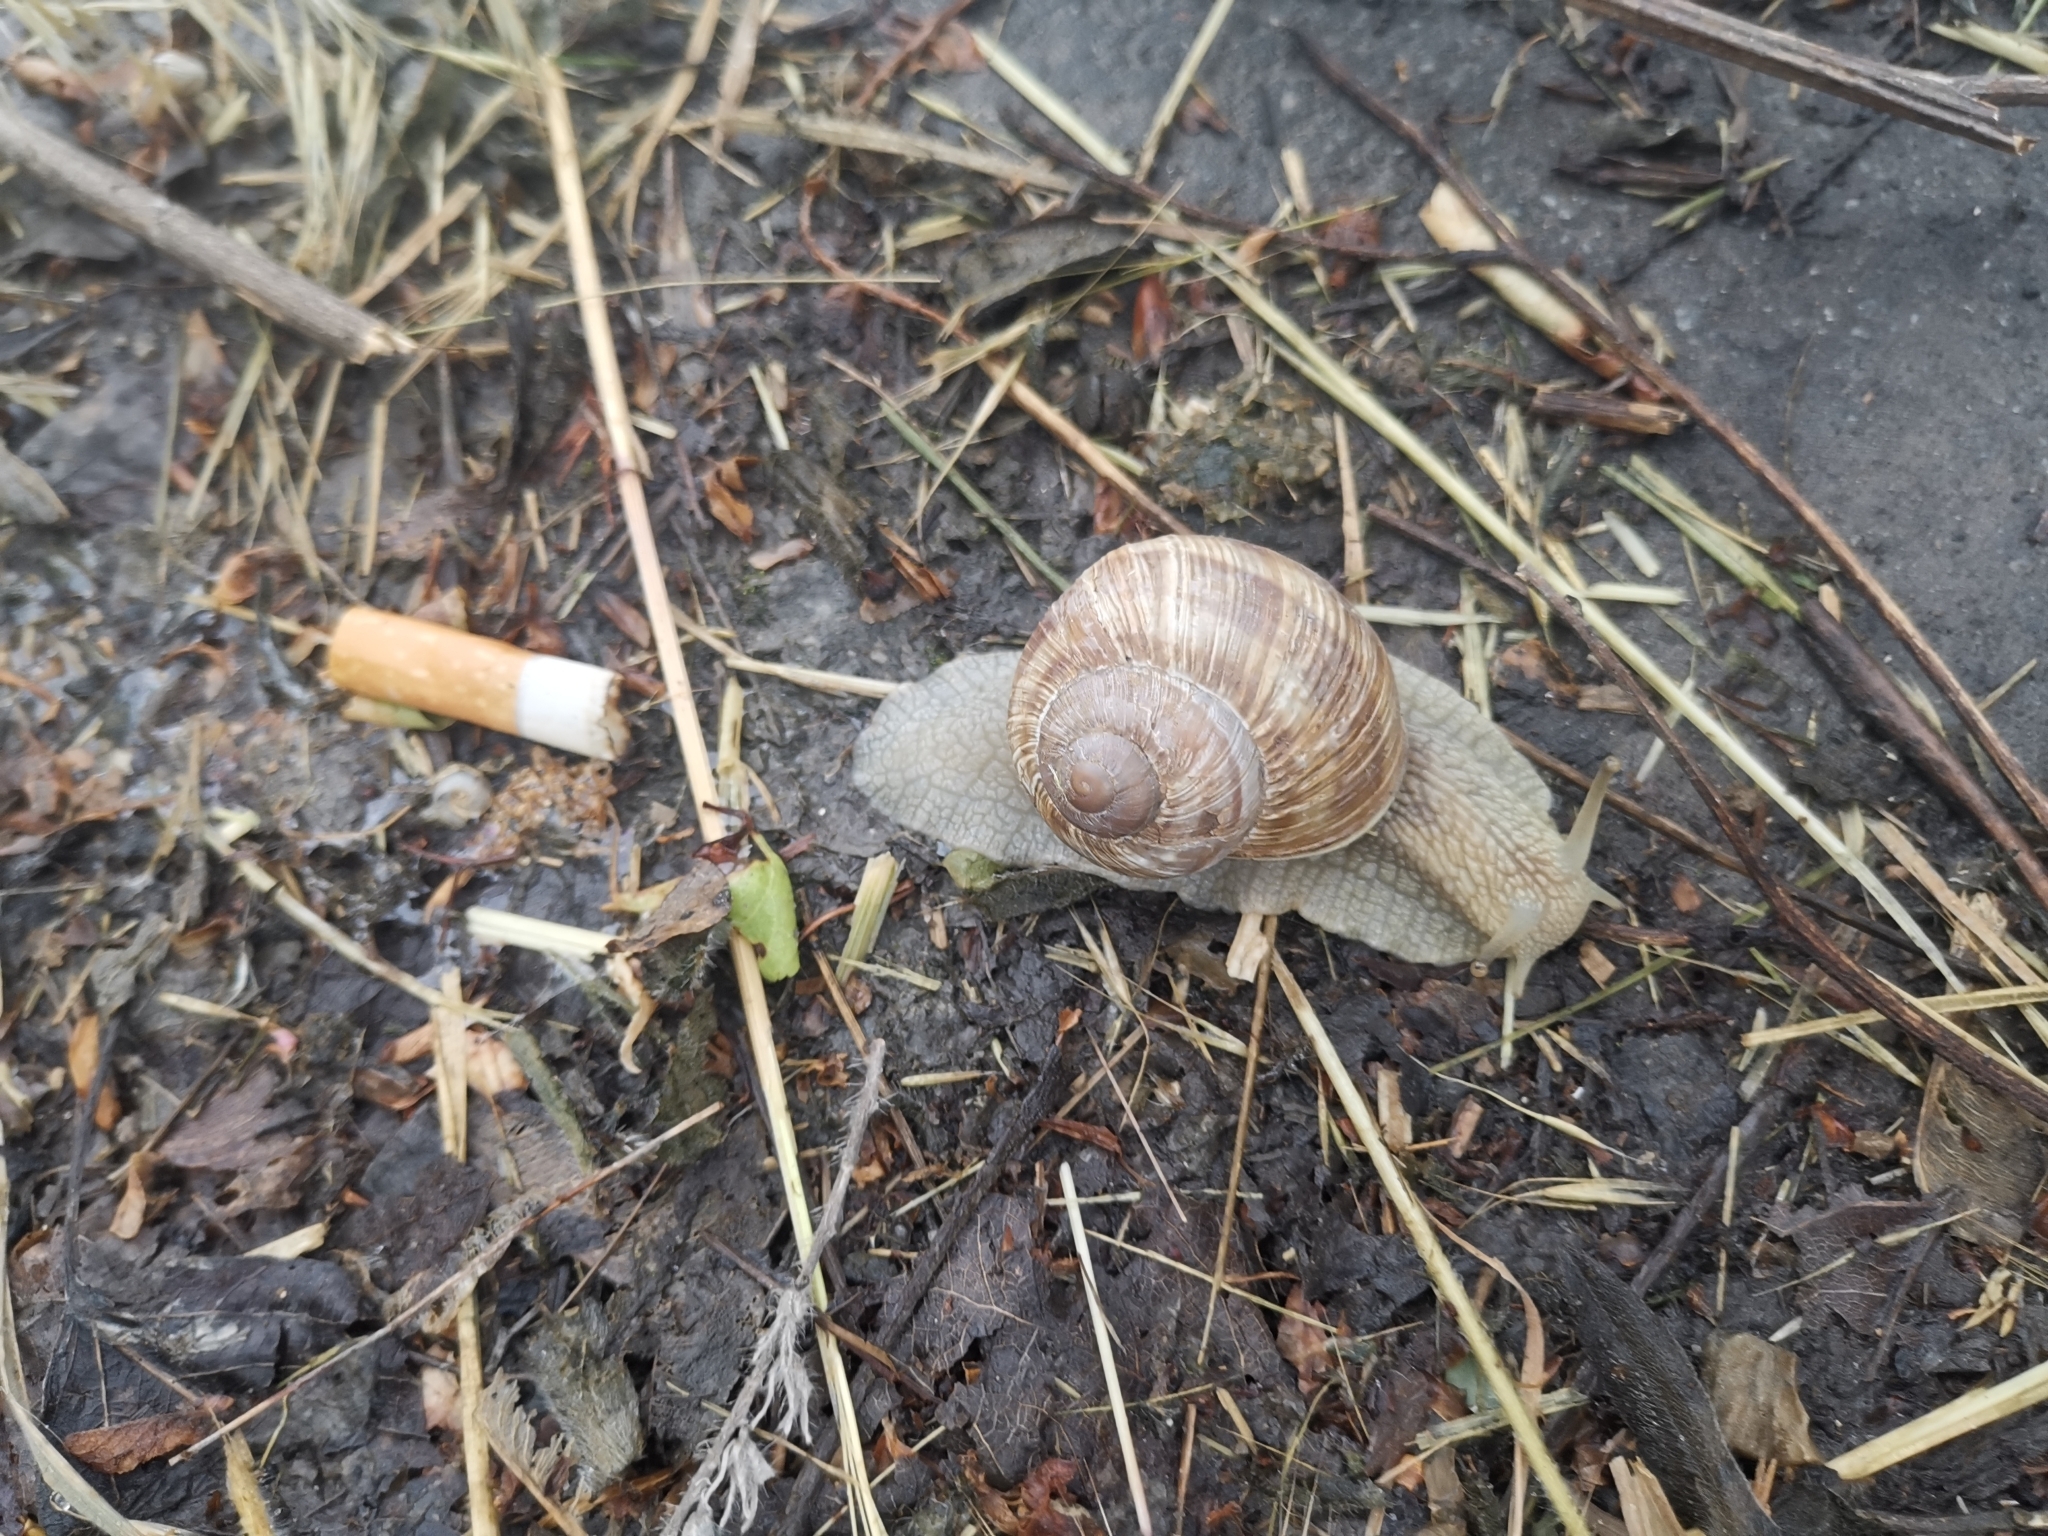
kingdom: Animalia
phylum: Mollusca
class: Gastropoda
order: Stylommatophora
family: Helicidae
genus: Helix
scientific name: Helix pomatia
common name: Roman snail
